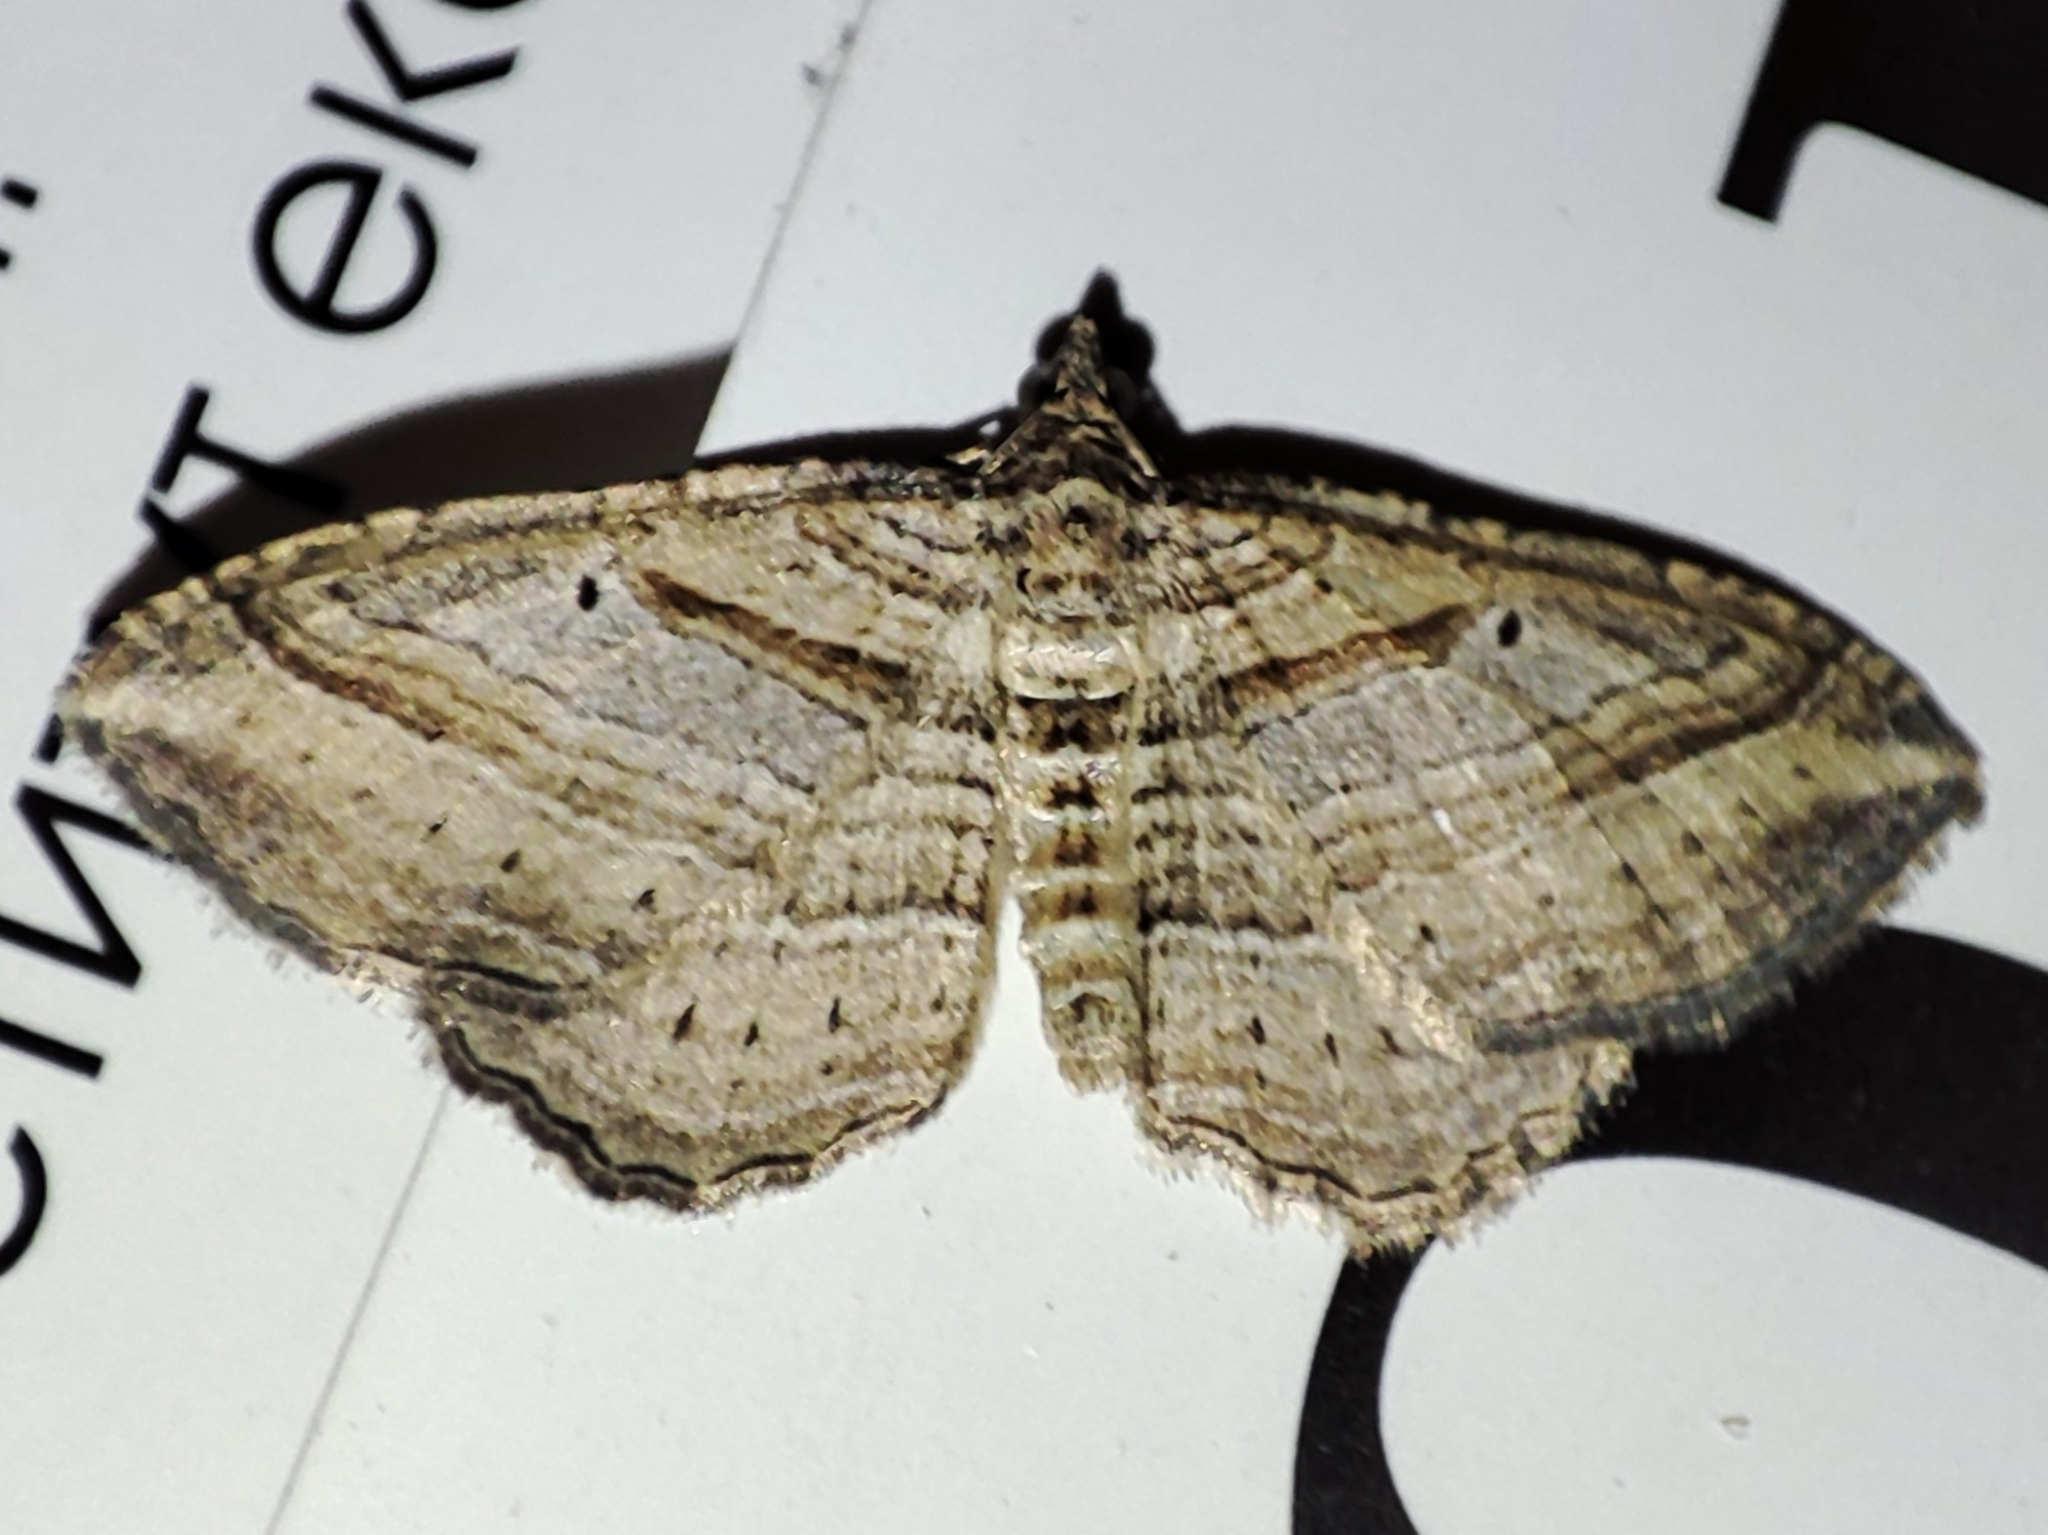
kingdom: Animalia
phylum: Arthropoda
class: Insecta
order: Lepidoptera
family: Geometridae
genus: Costaconvexa
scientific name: Costaconvexa polygrammata
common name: Many-lined
